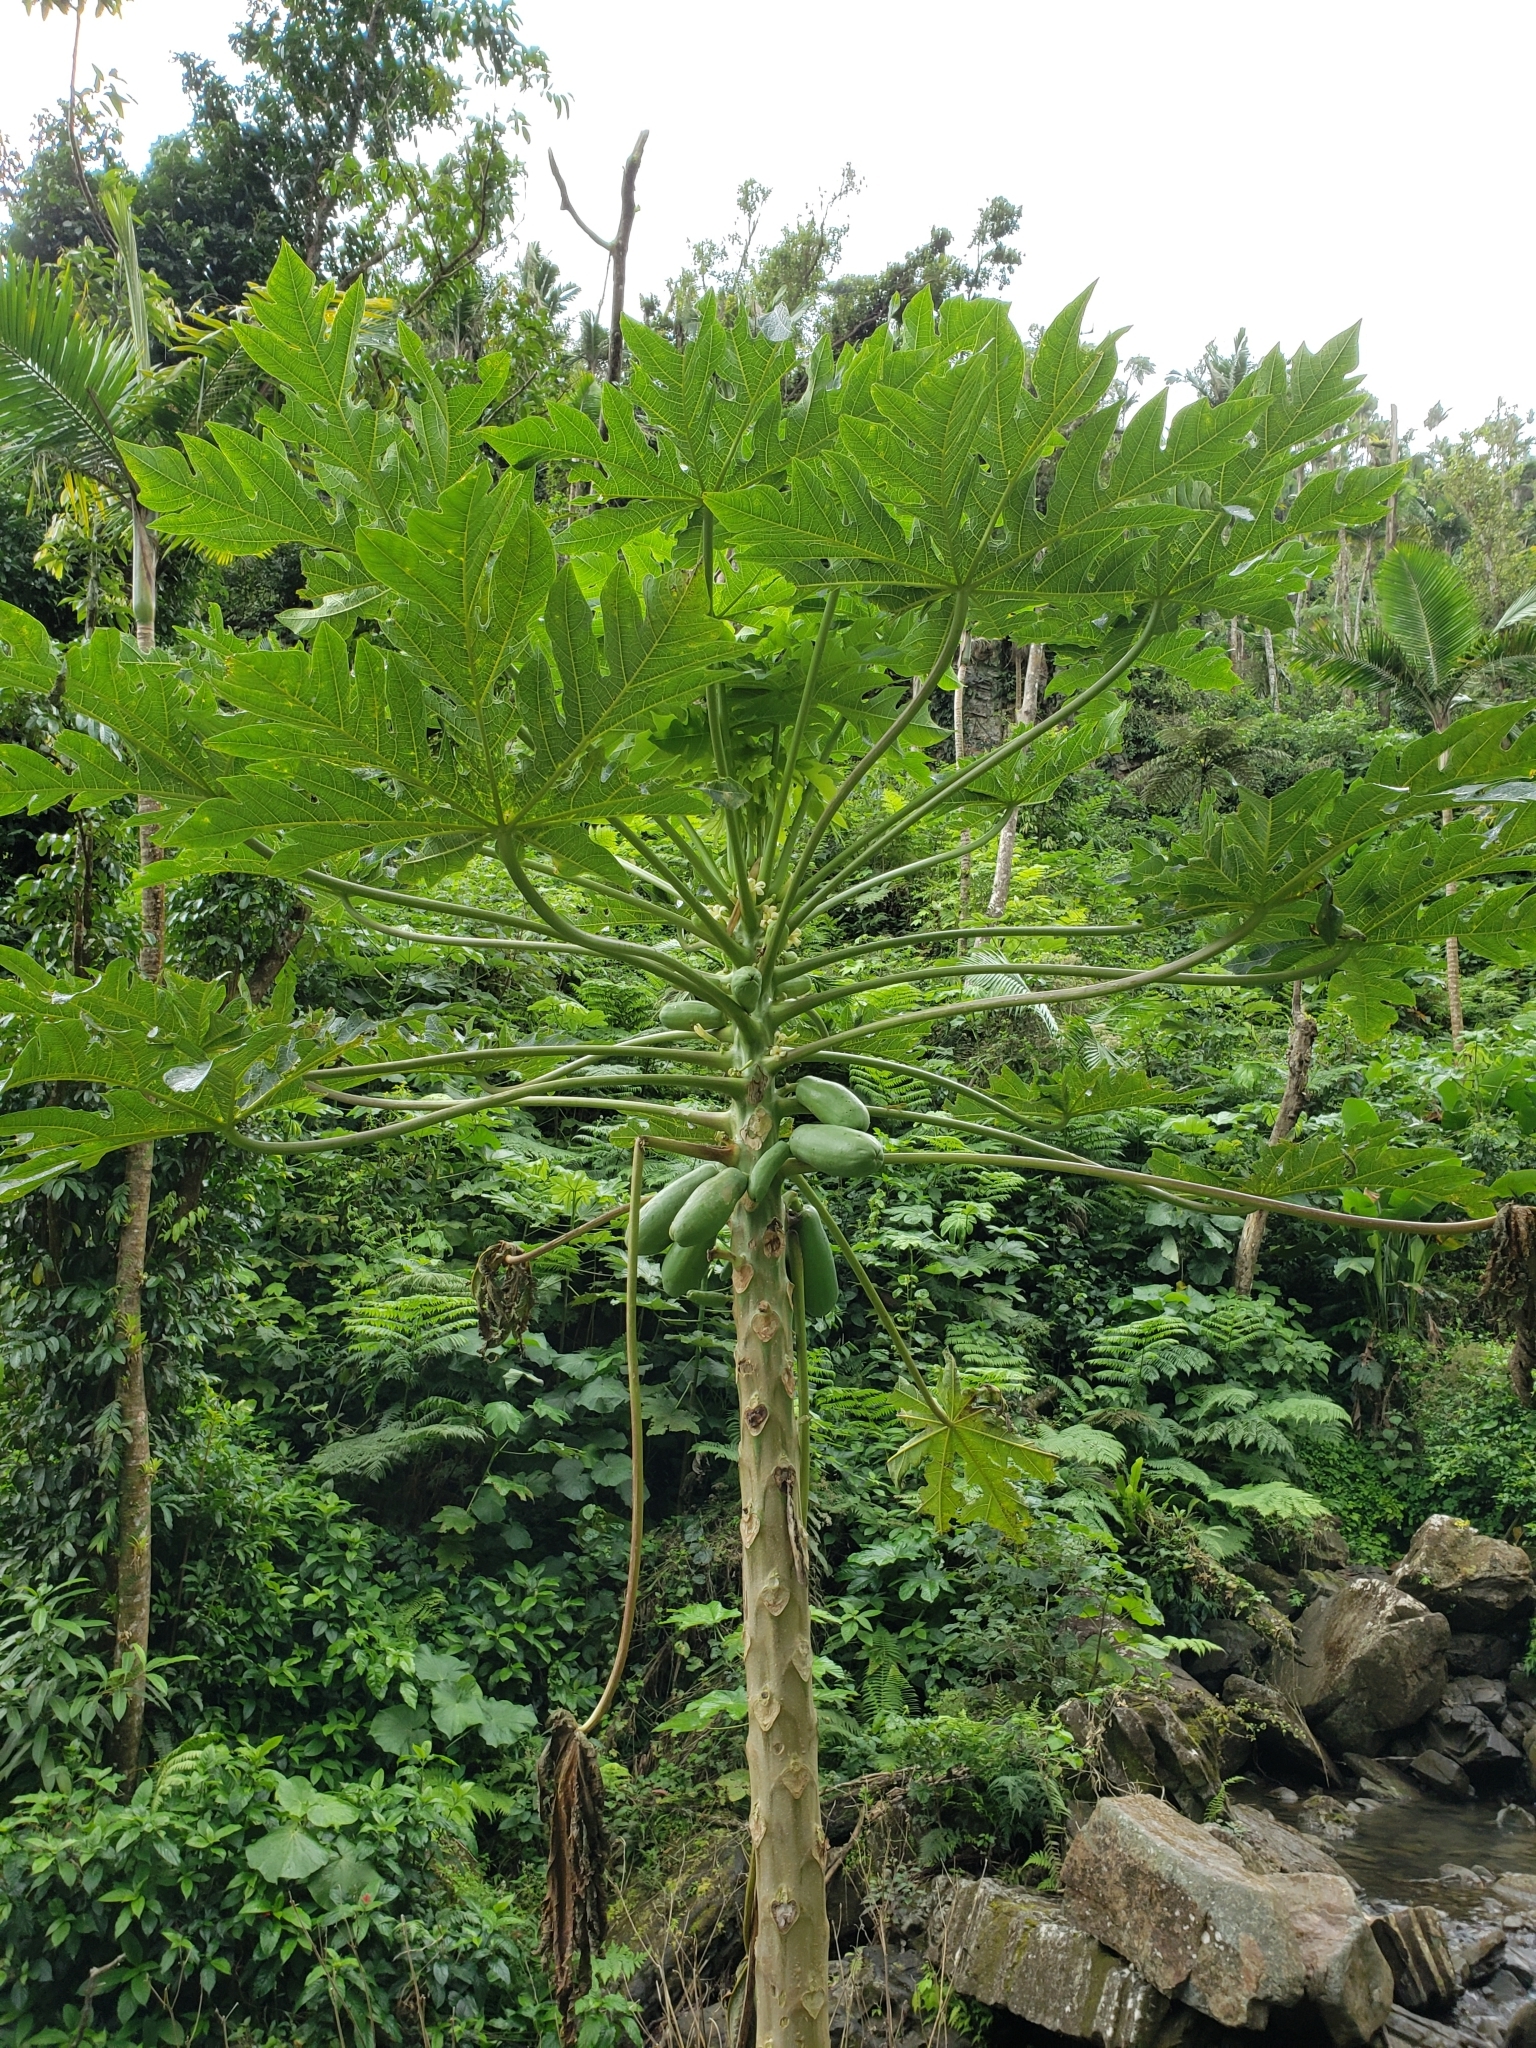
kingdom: Plantae
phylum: Tracheophyta
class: Magnoliopsida
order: Brassicales
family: Caricaceae
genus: Carica
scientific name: Carica papaya
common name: Papaya
